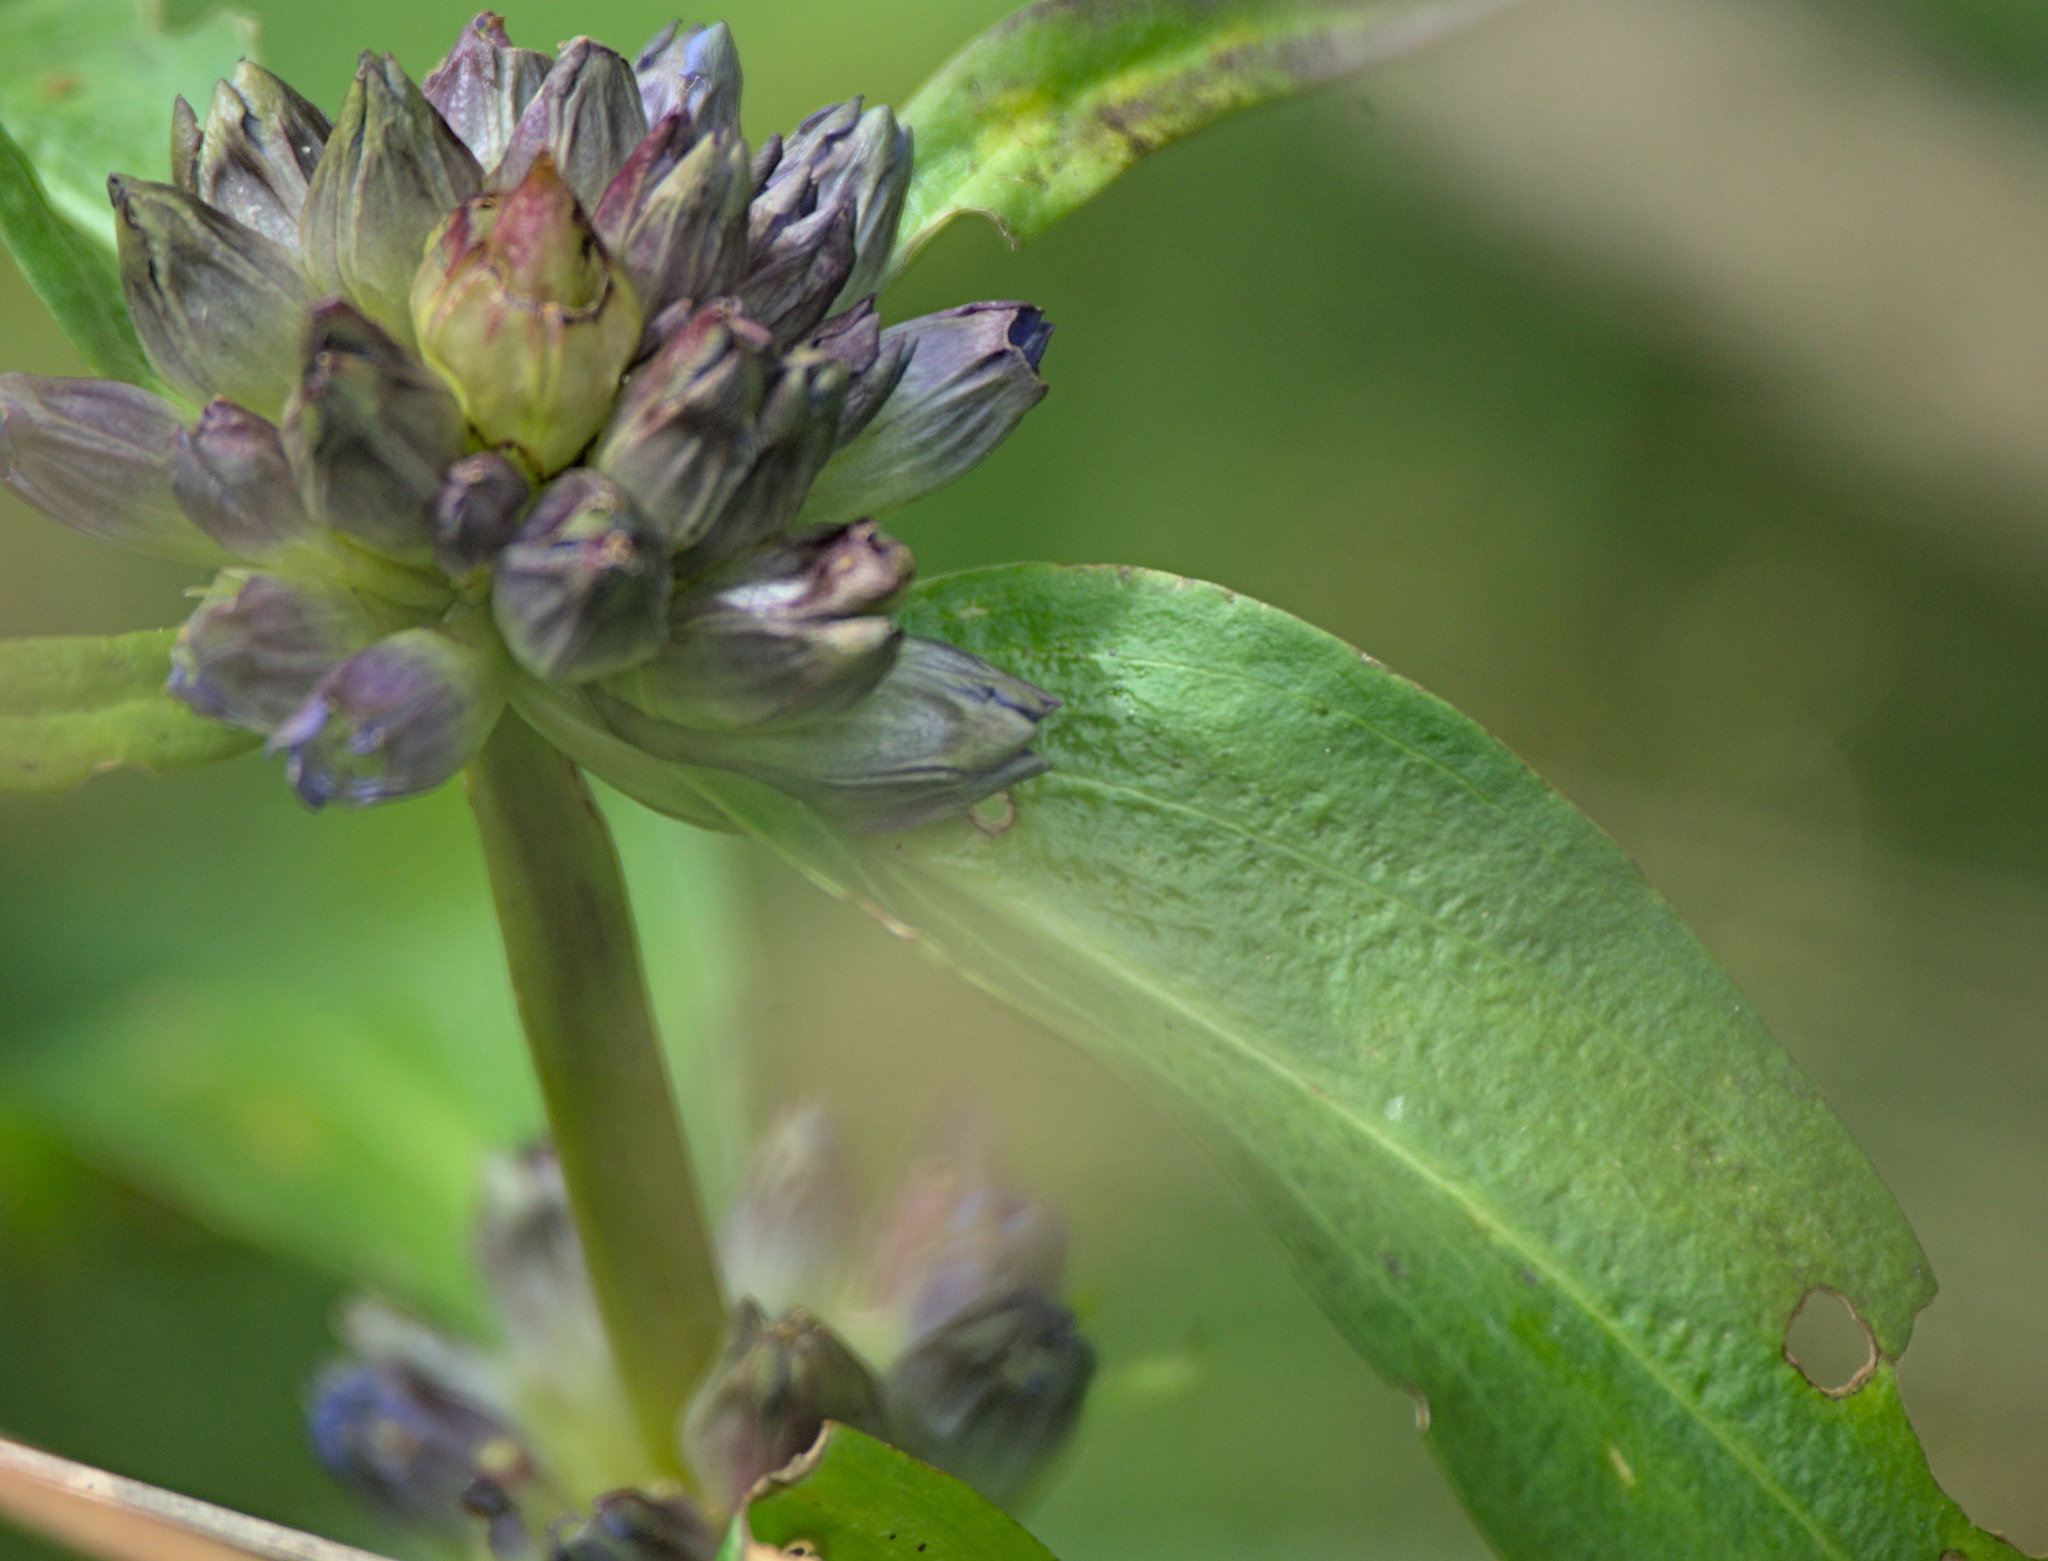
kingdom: Plantae
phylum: Tracheophyta
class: Magnoliopsida
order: Gentianales
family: Gentianaceae
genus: Gentiana
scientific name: Gentiana macrophylla
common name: Large-leaf gentian
